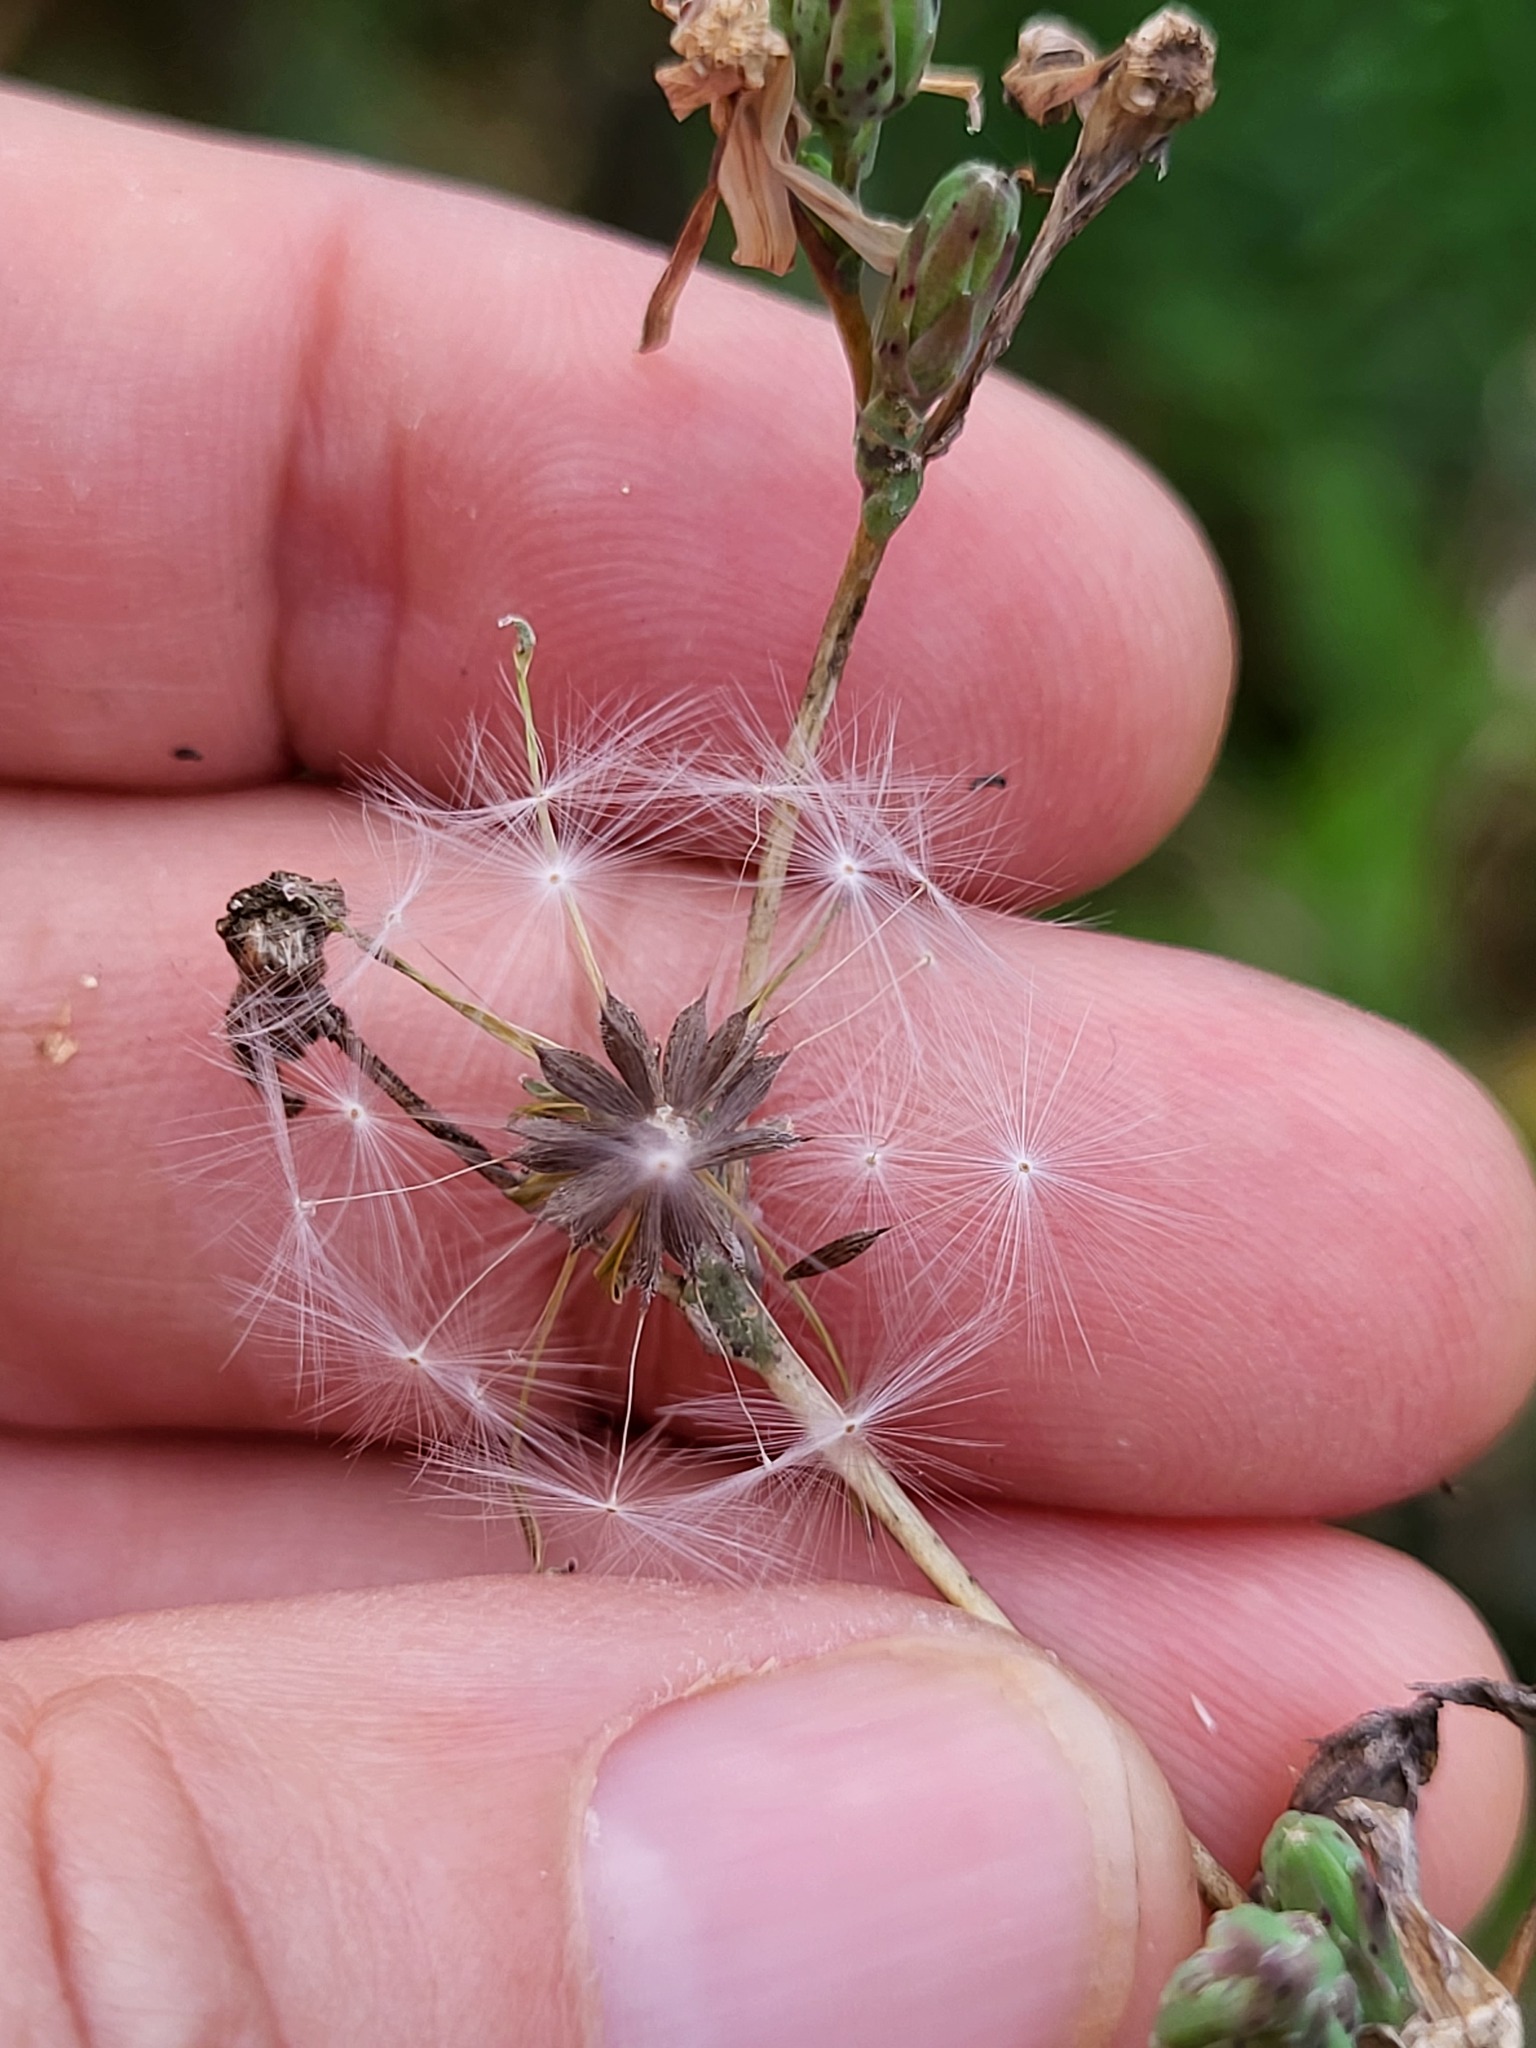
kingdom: Plantae
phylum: Tracheophyta
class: Magnoliopsida
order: Asterales
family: Asteraceae
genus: Lactuca
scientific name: Lactuca serriola
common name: Prickly lettuce
